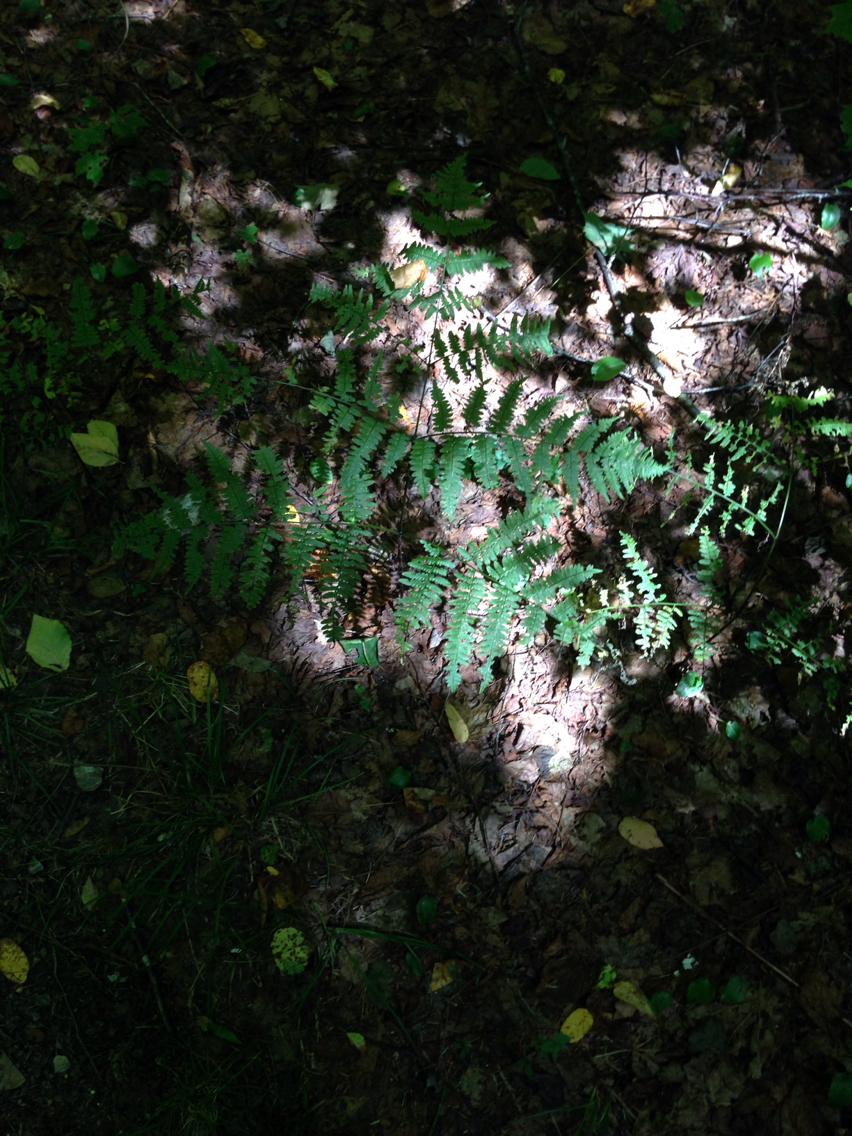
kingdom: Plantae
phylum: Tracheophyta
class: Polypodiopsida
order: Polypodiales
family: Dennstaedtiaceae
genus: Pteridium
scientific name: Pteridium aquilinum
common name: Bracken
